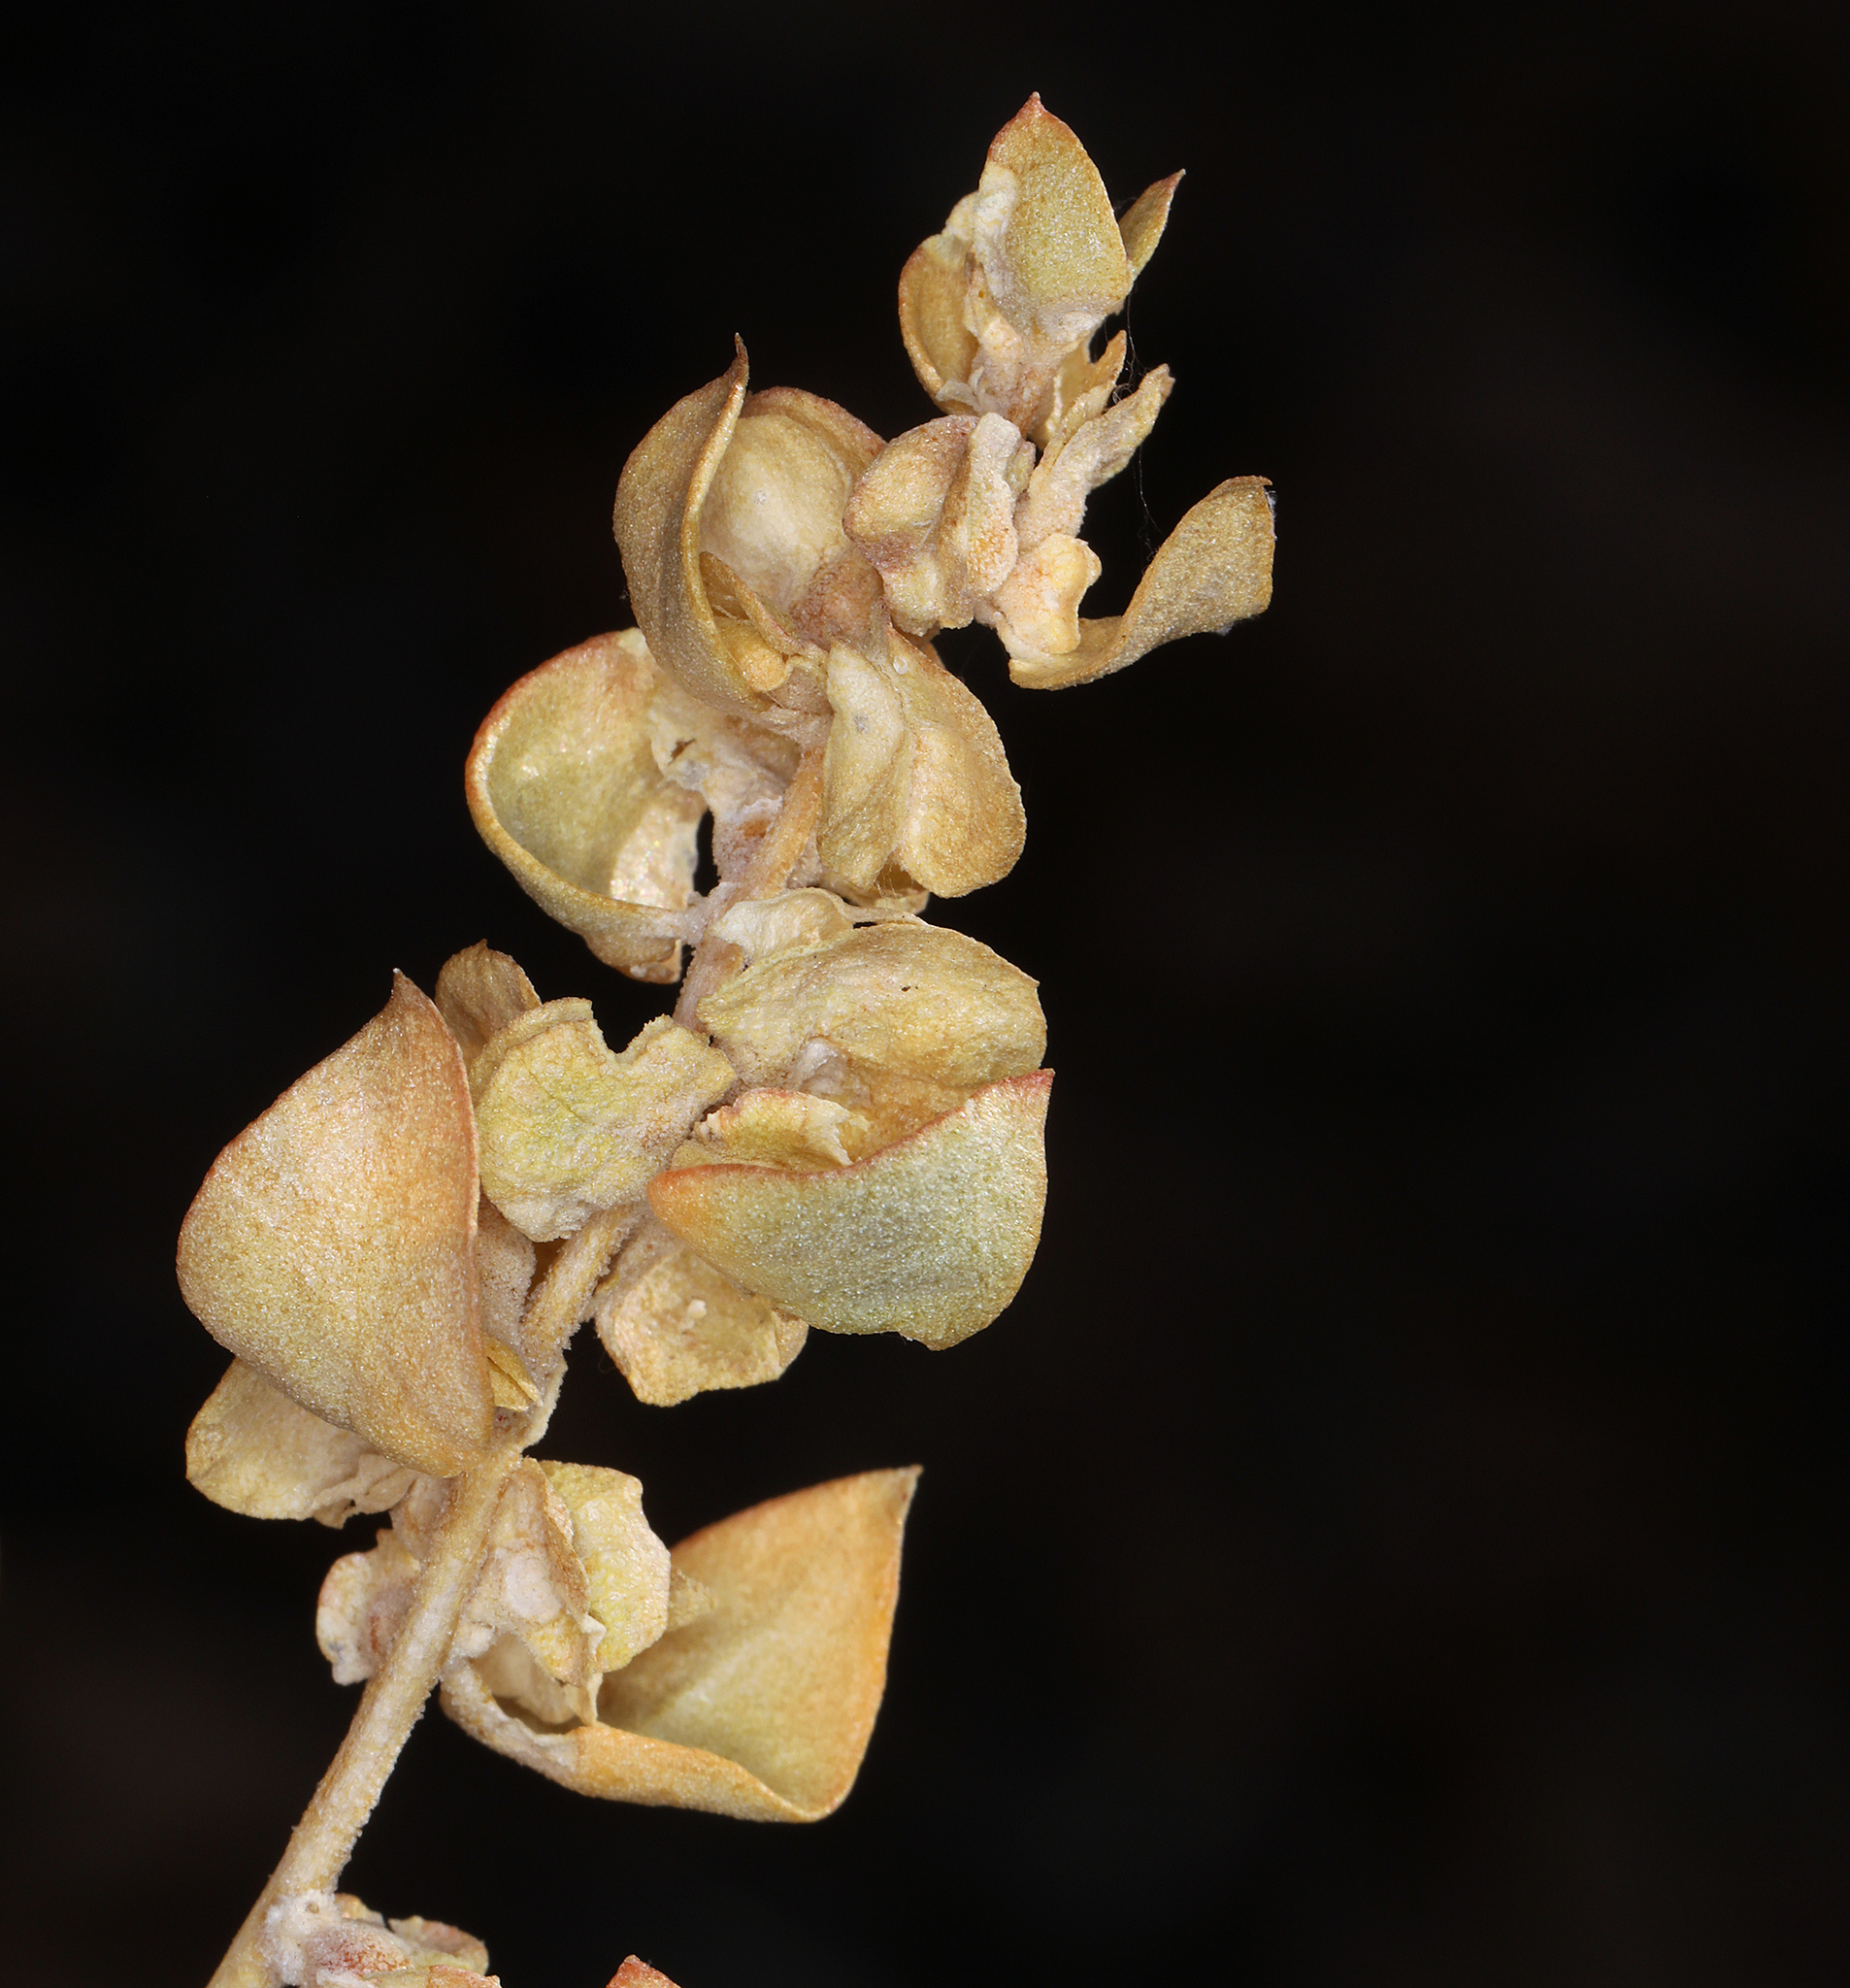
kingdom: Plantae
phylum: Tracheophyta
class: Magnoliopsida
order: Caryophyllales
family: Amaranthaceae
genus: Atriplex
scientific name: Atriplex confertifolia
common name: Shadscale
